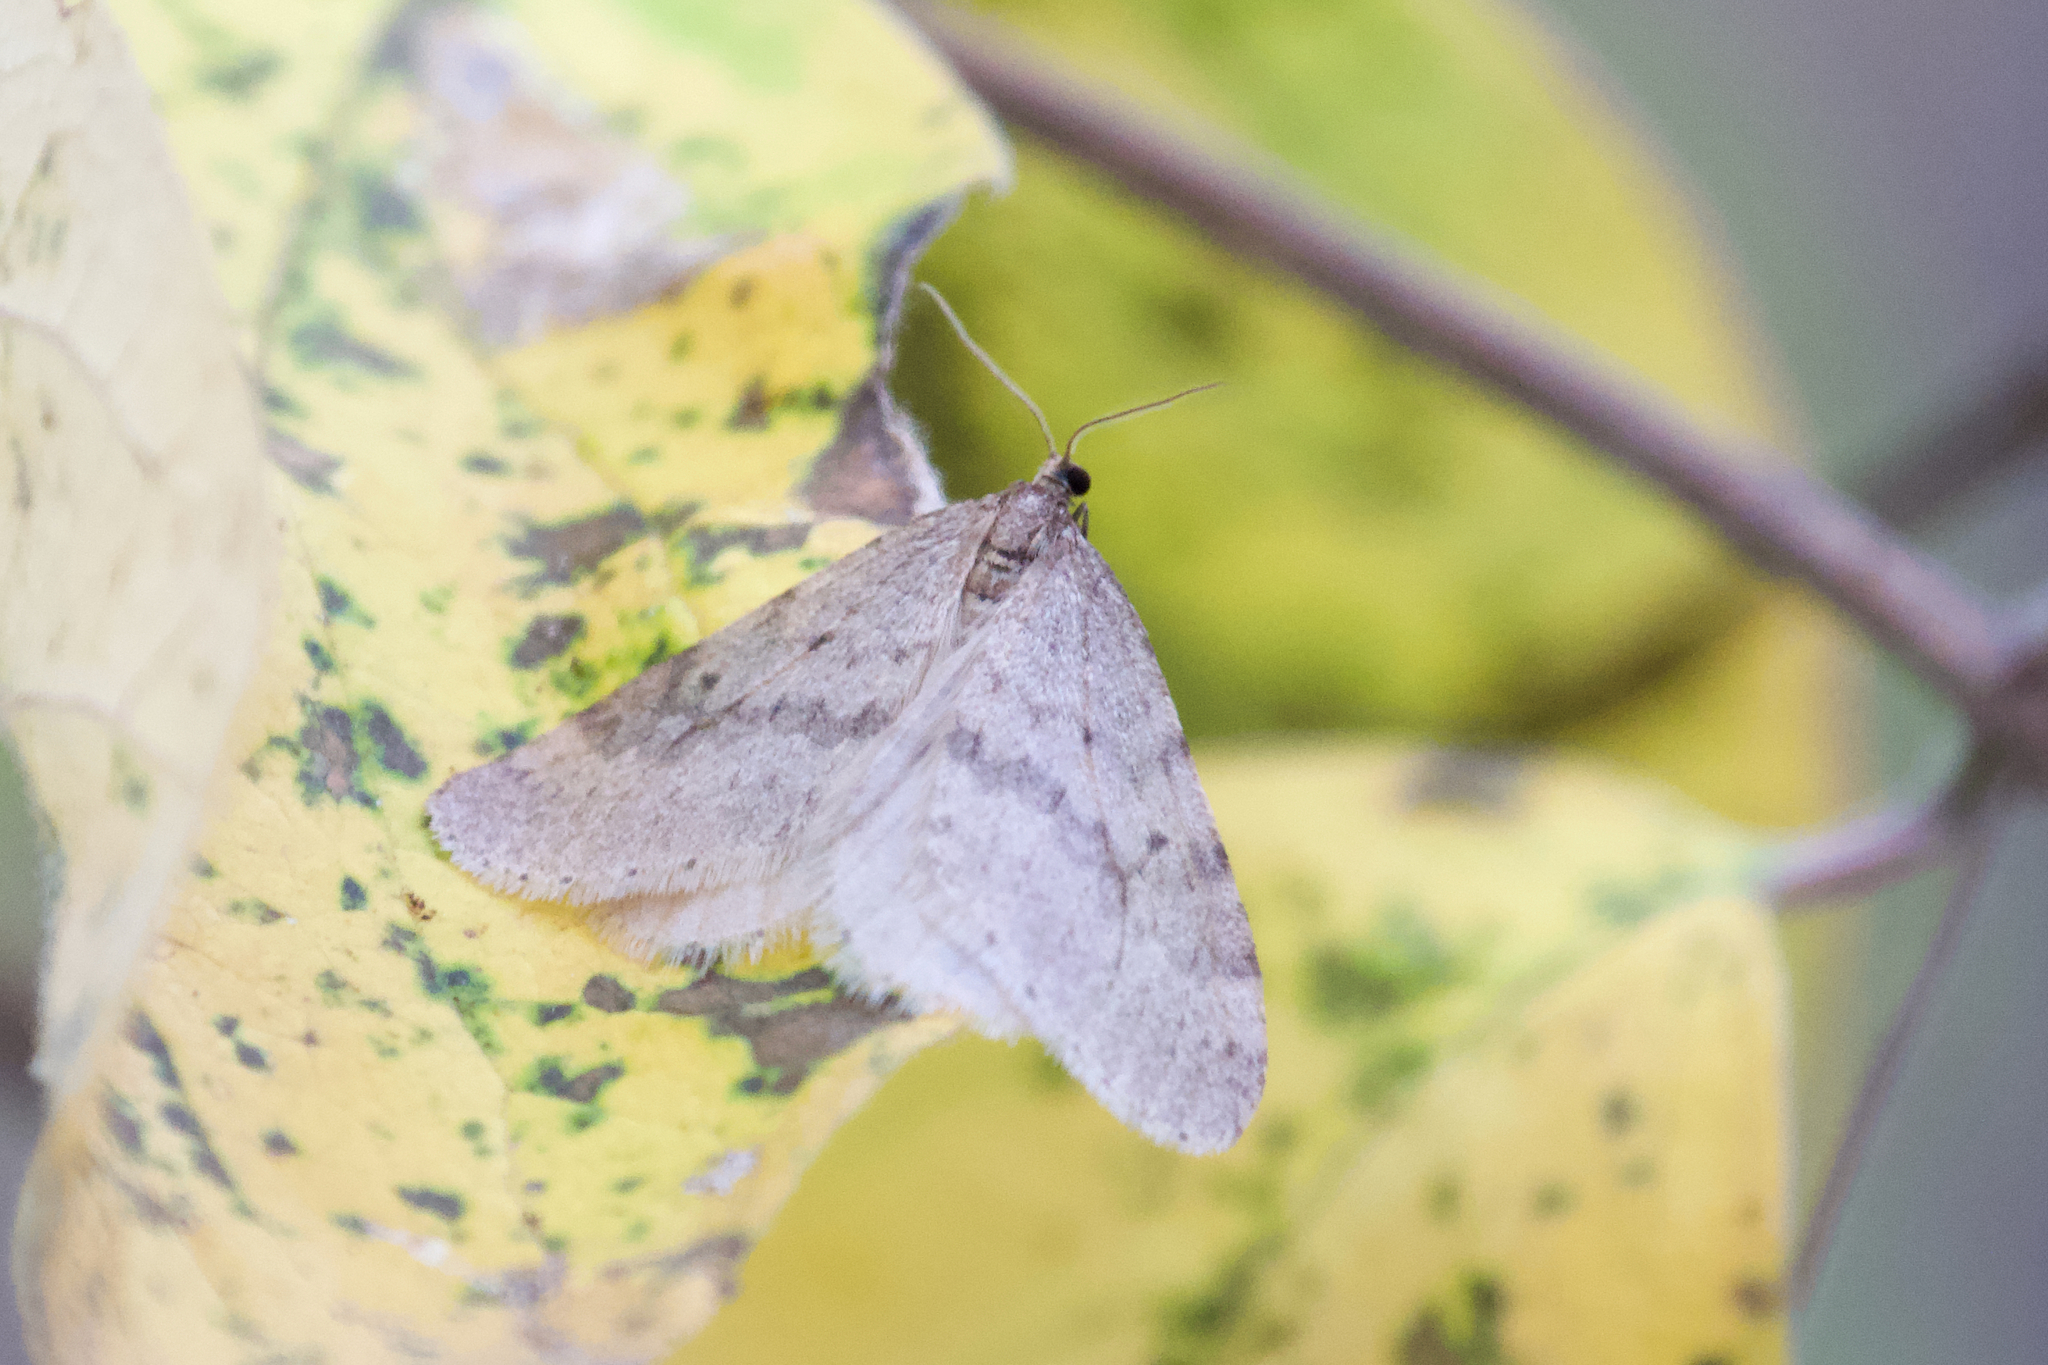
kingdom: Animalia
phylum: Arthropoda
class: Insecta
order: Lepidoptera
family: Geometridae
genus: Operophtera
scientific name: Operophtera bruceata
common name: Bruce spanworm
